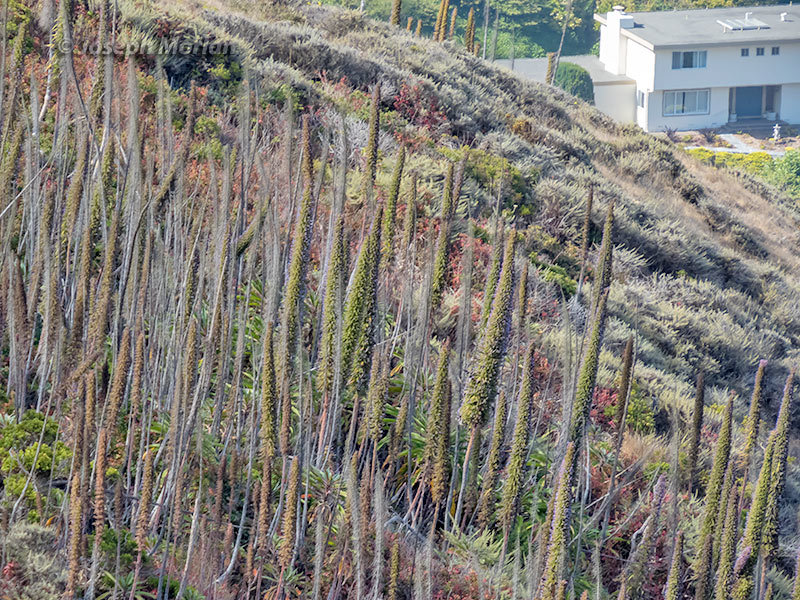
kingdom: Plantae
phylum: Tracheophyta
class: Magnoliopsida
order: Boraginales
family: Boraginaceae
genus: Echium
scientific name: Echium pininana
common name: Giant viper's-bugloss
